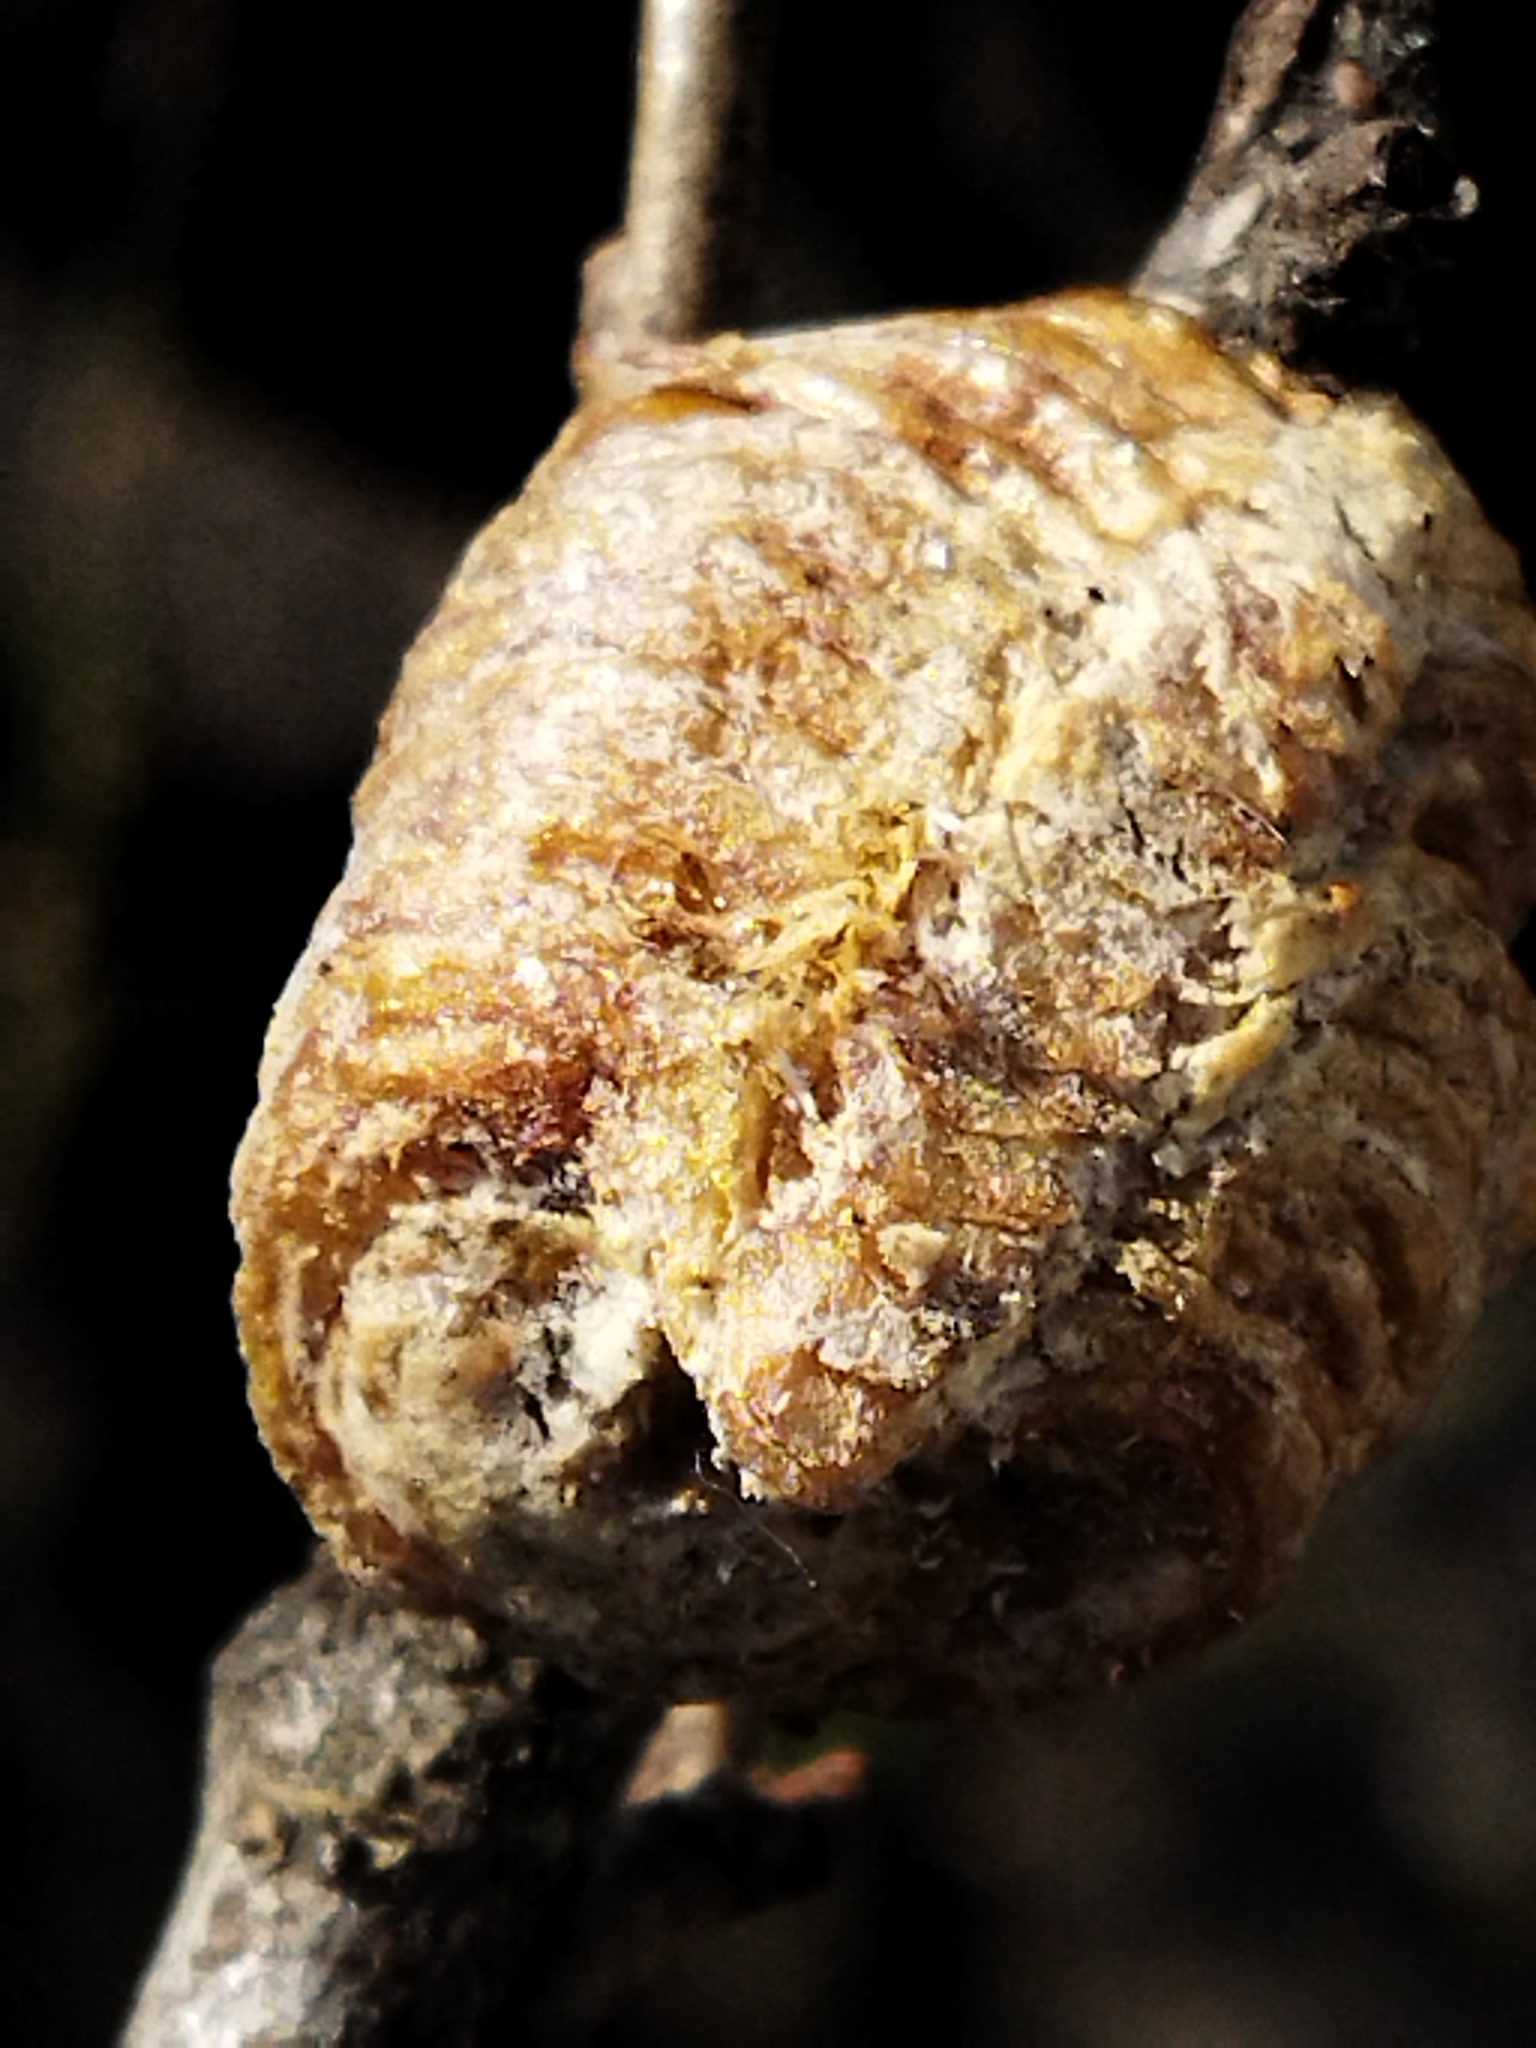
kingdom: Animalia
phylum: Arthropoda
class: Insecta
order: Mantodea
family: Mantidae
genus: Hierodula
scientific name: Hierodula transcaucasica
